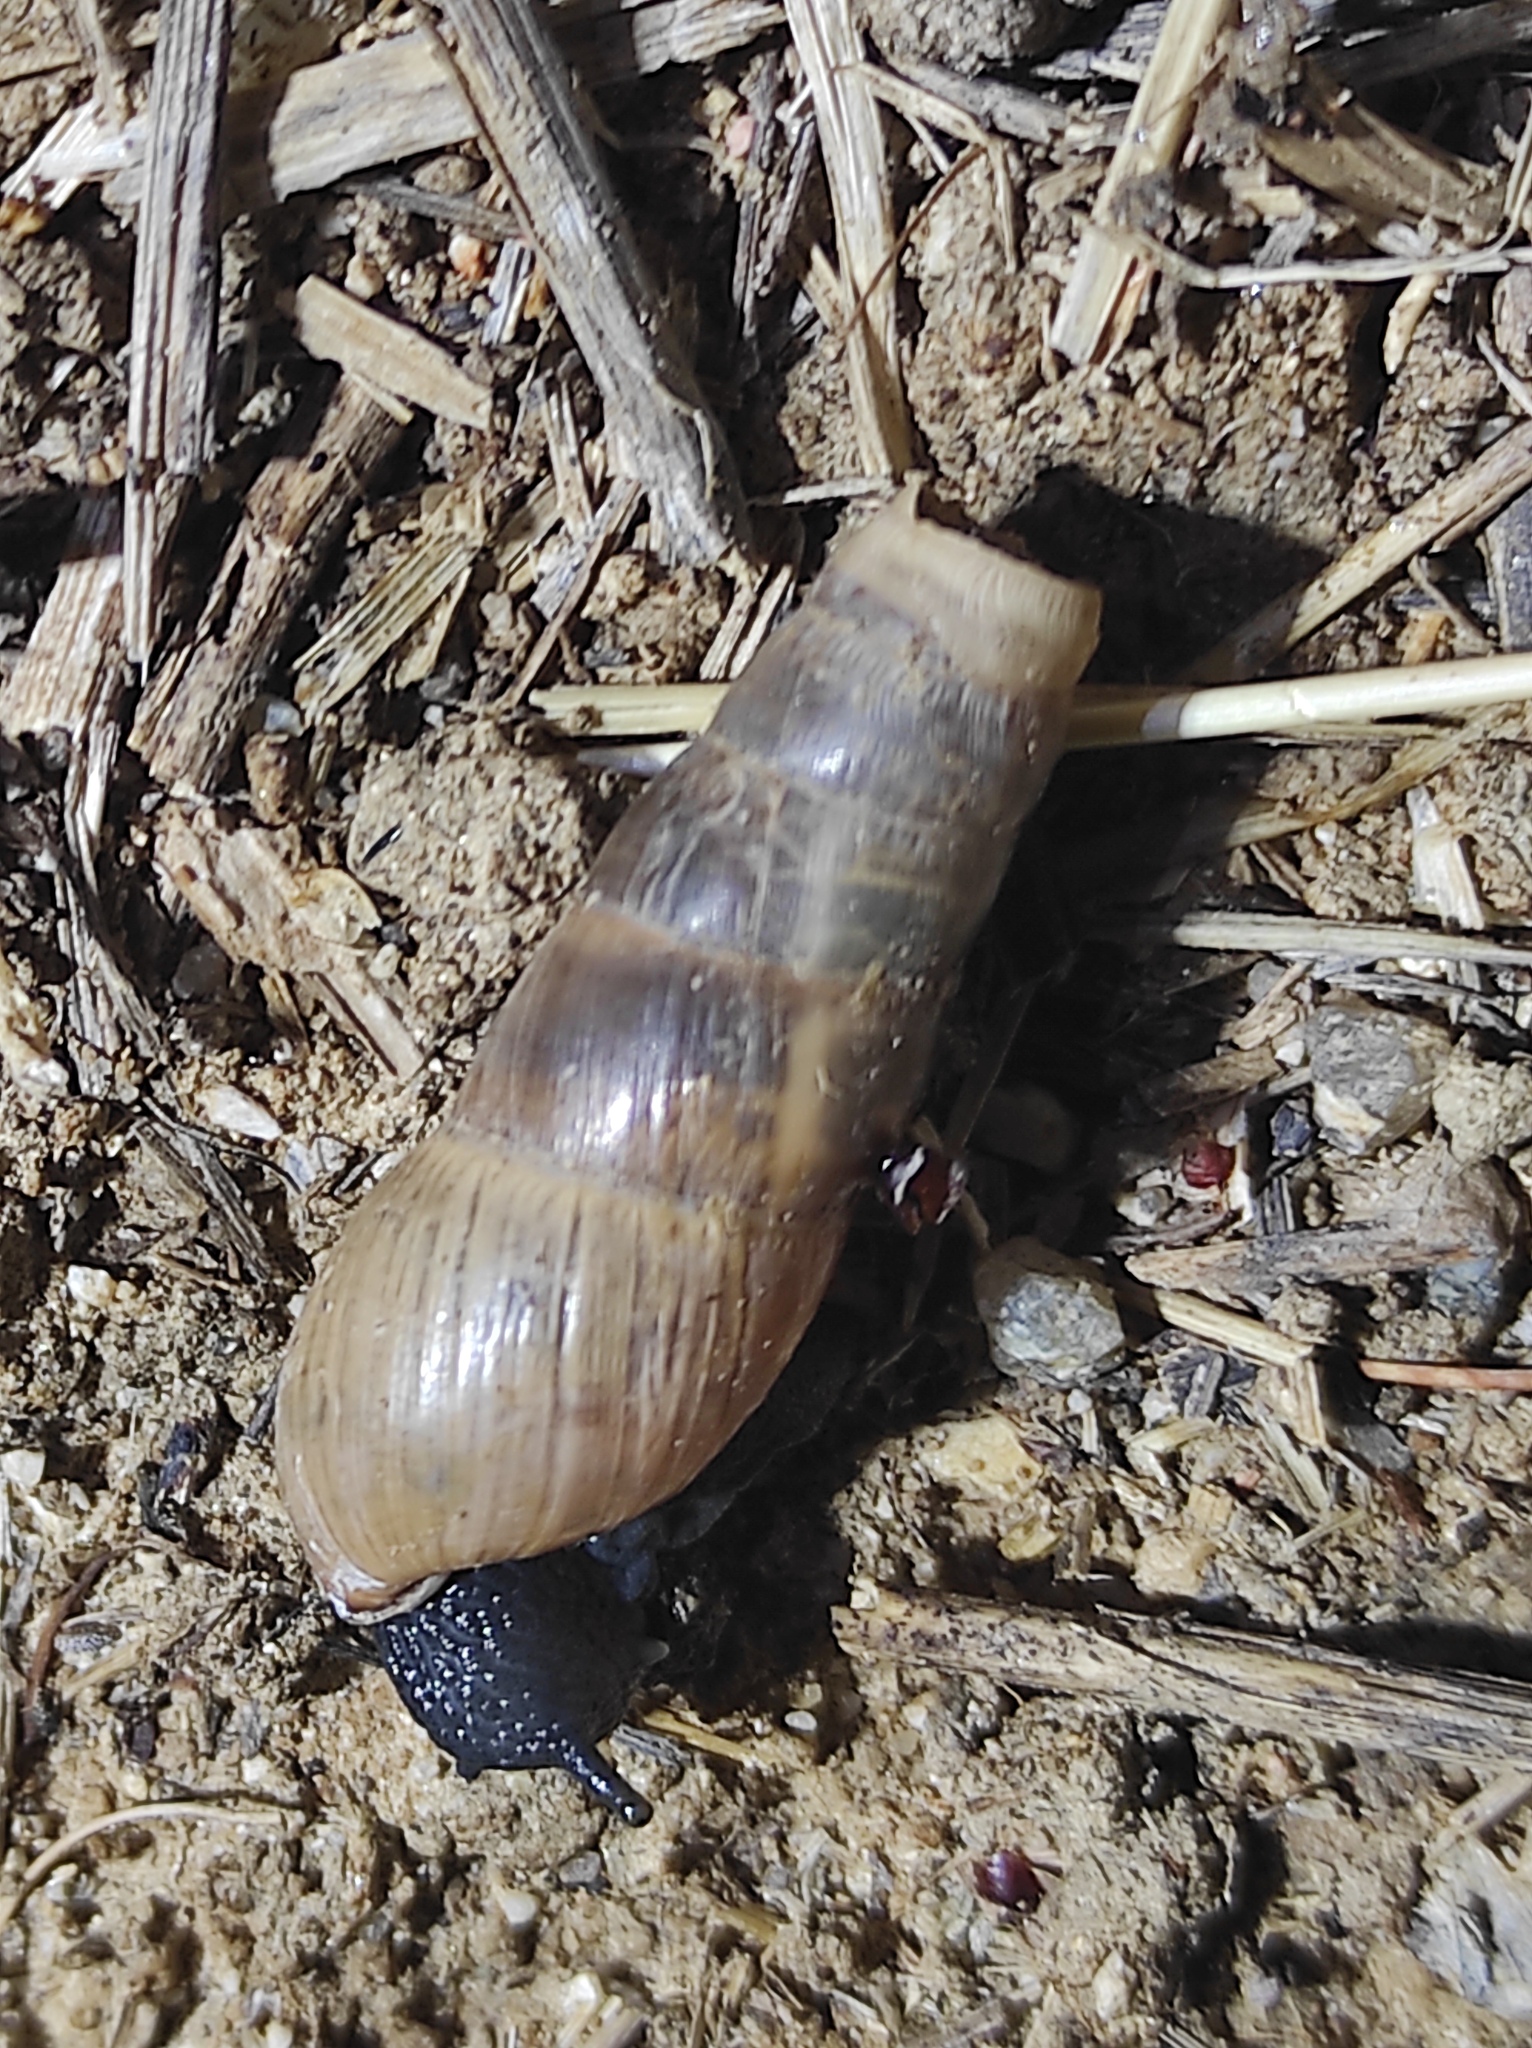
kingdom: Animalia
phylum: Mollusca
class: Gastropoda
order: Stylommatophora
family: Achatinidae
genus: Rumina
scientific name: Rumina decollata
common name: Decollate snail
